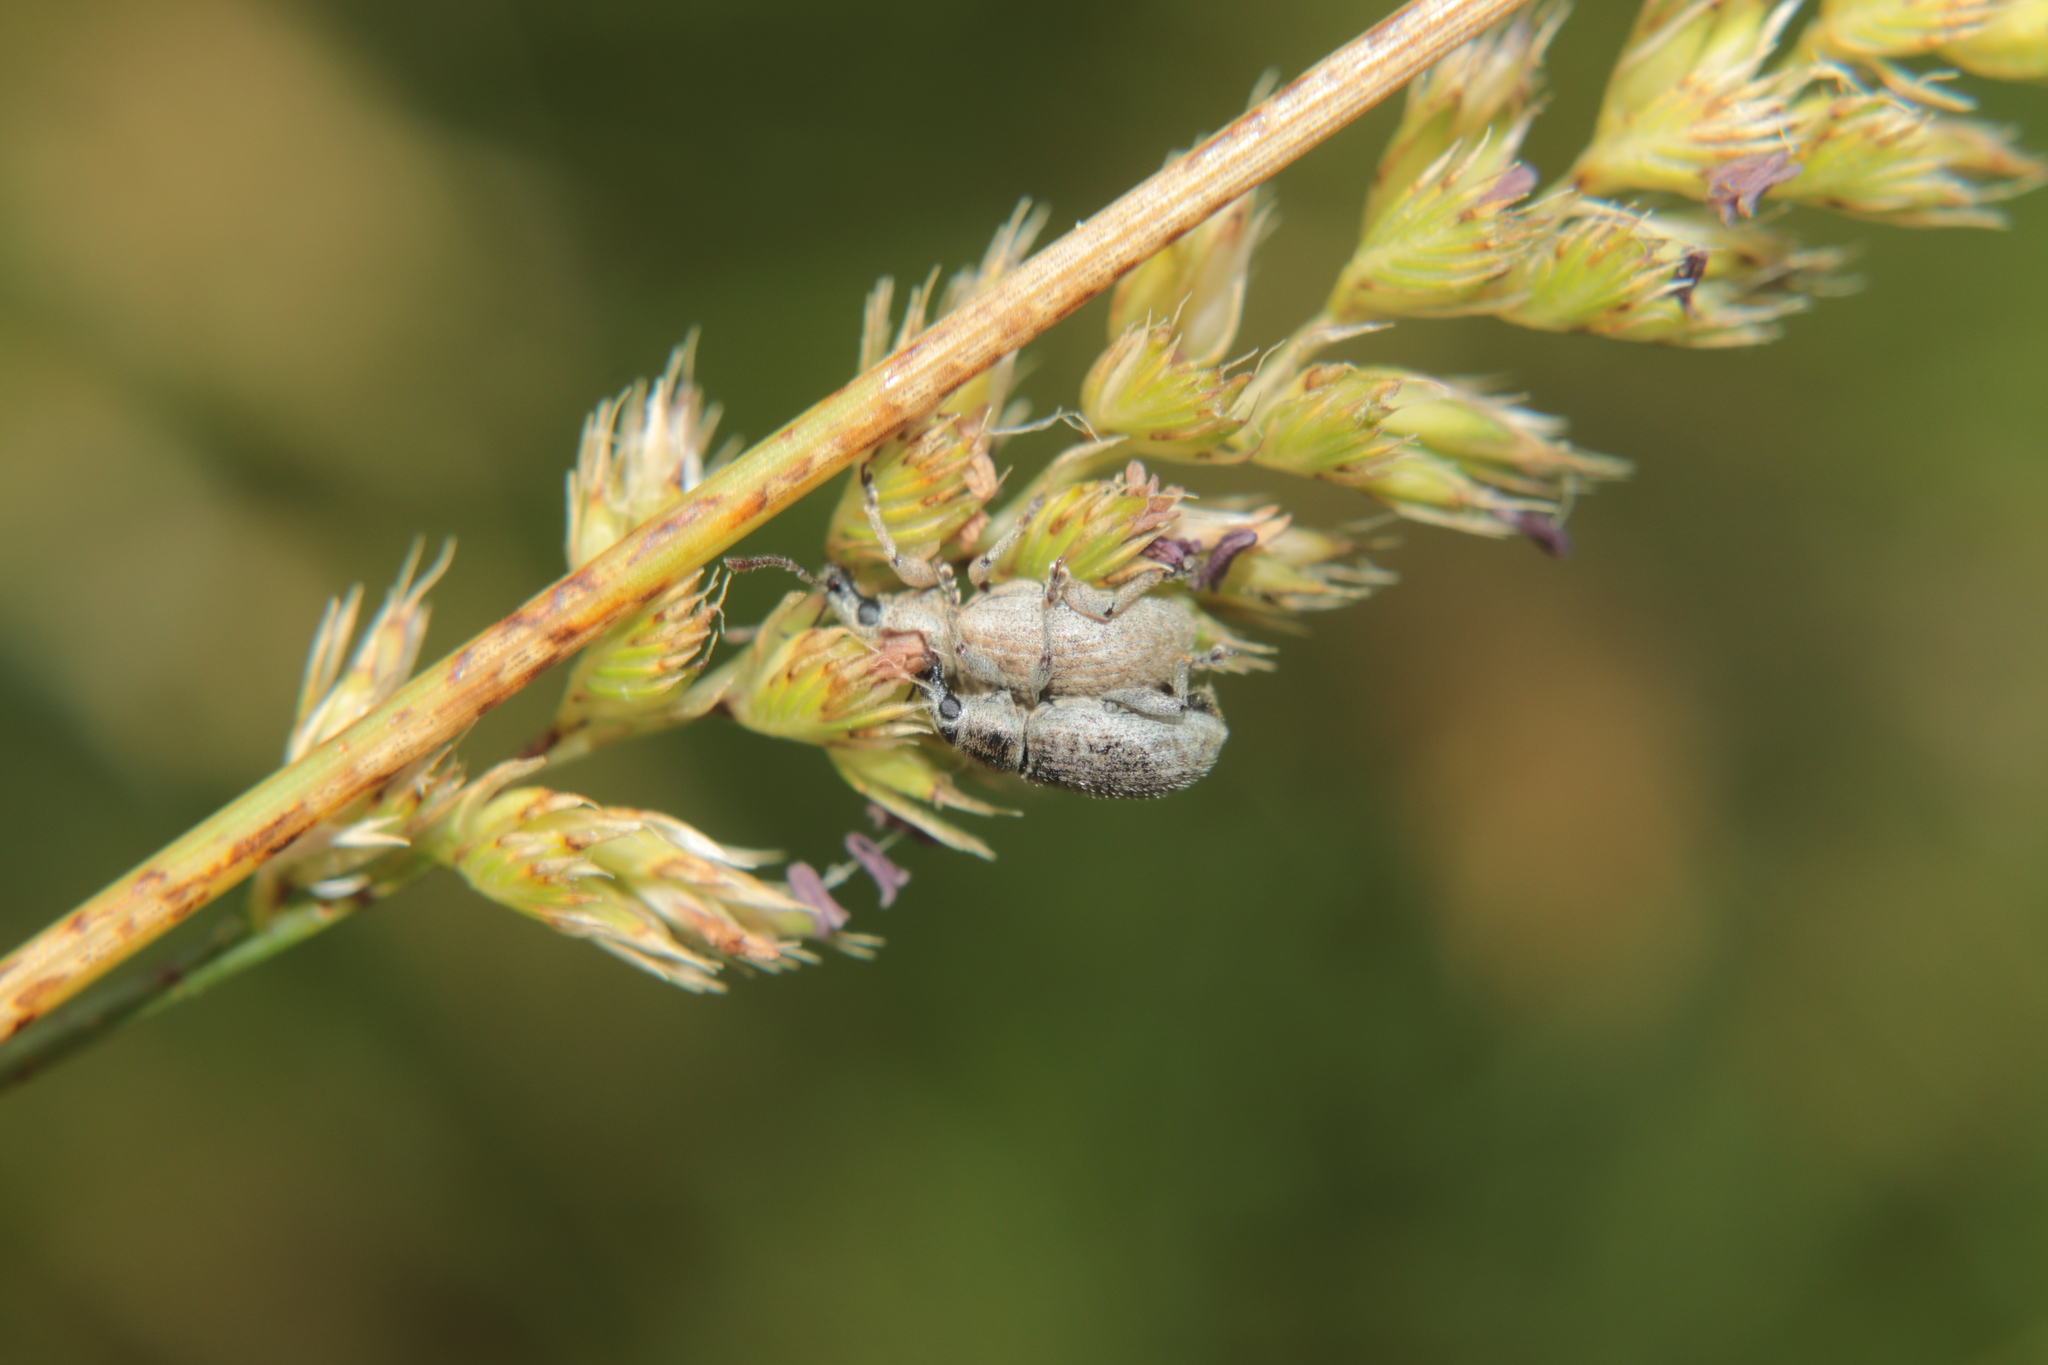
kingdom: Animalia
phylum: Arthropoda
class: Insecta
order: Coleoptera
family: Curculionidae
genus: Nonnotus
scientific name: Nonnotus albicans
